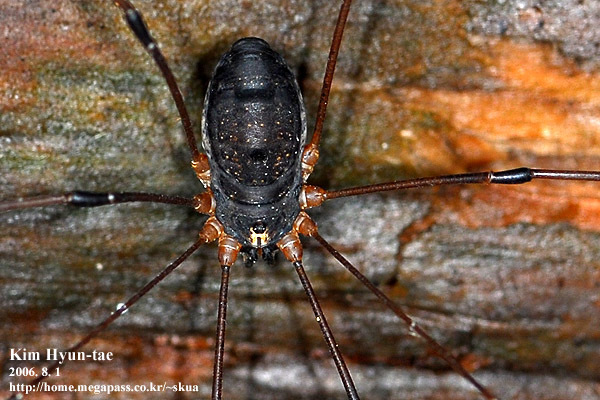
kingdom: Animalia
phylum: Arthropoda
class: Arachnida
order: Opiliones
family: Sclerosomatidae
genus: Thunbergia
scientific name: Thunbergia grandis
